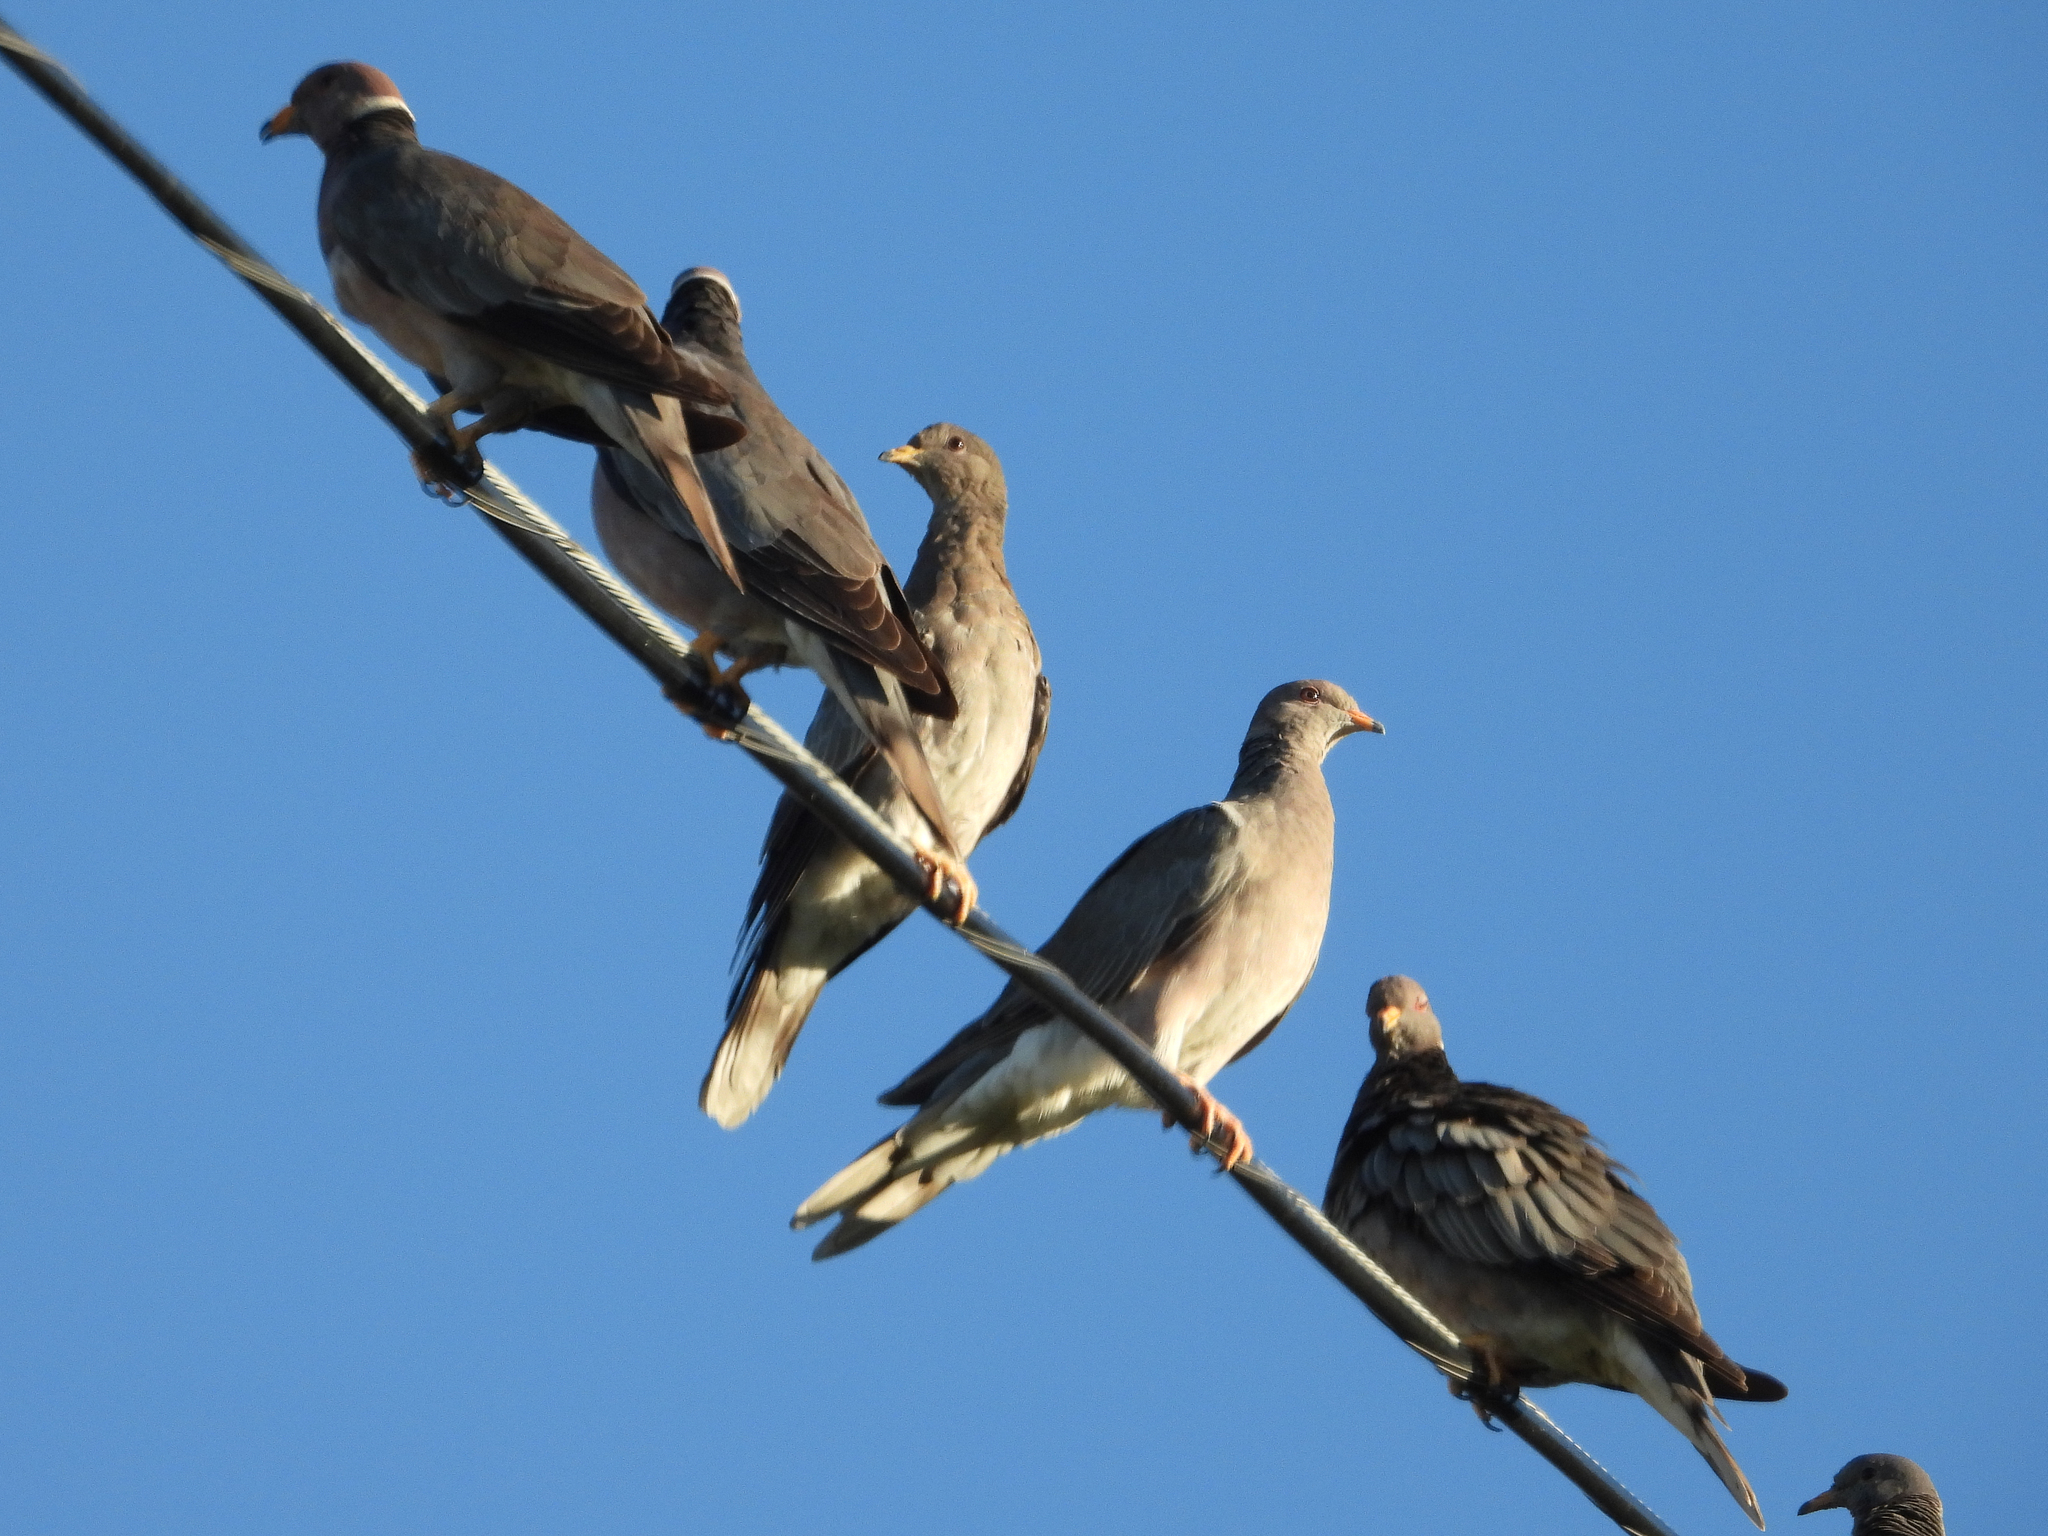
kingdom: Animalia
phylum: Chordata
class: Aves
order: Columbiformes
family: Columbidae
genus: Patagioenas
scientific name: Patagioenas fasciata
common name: Band-tailed pigeon
